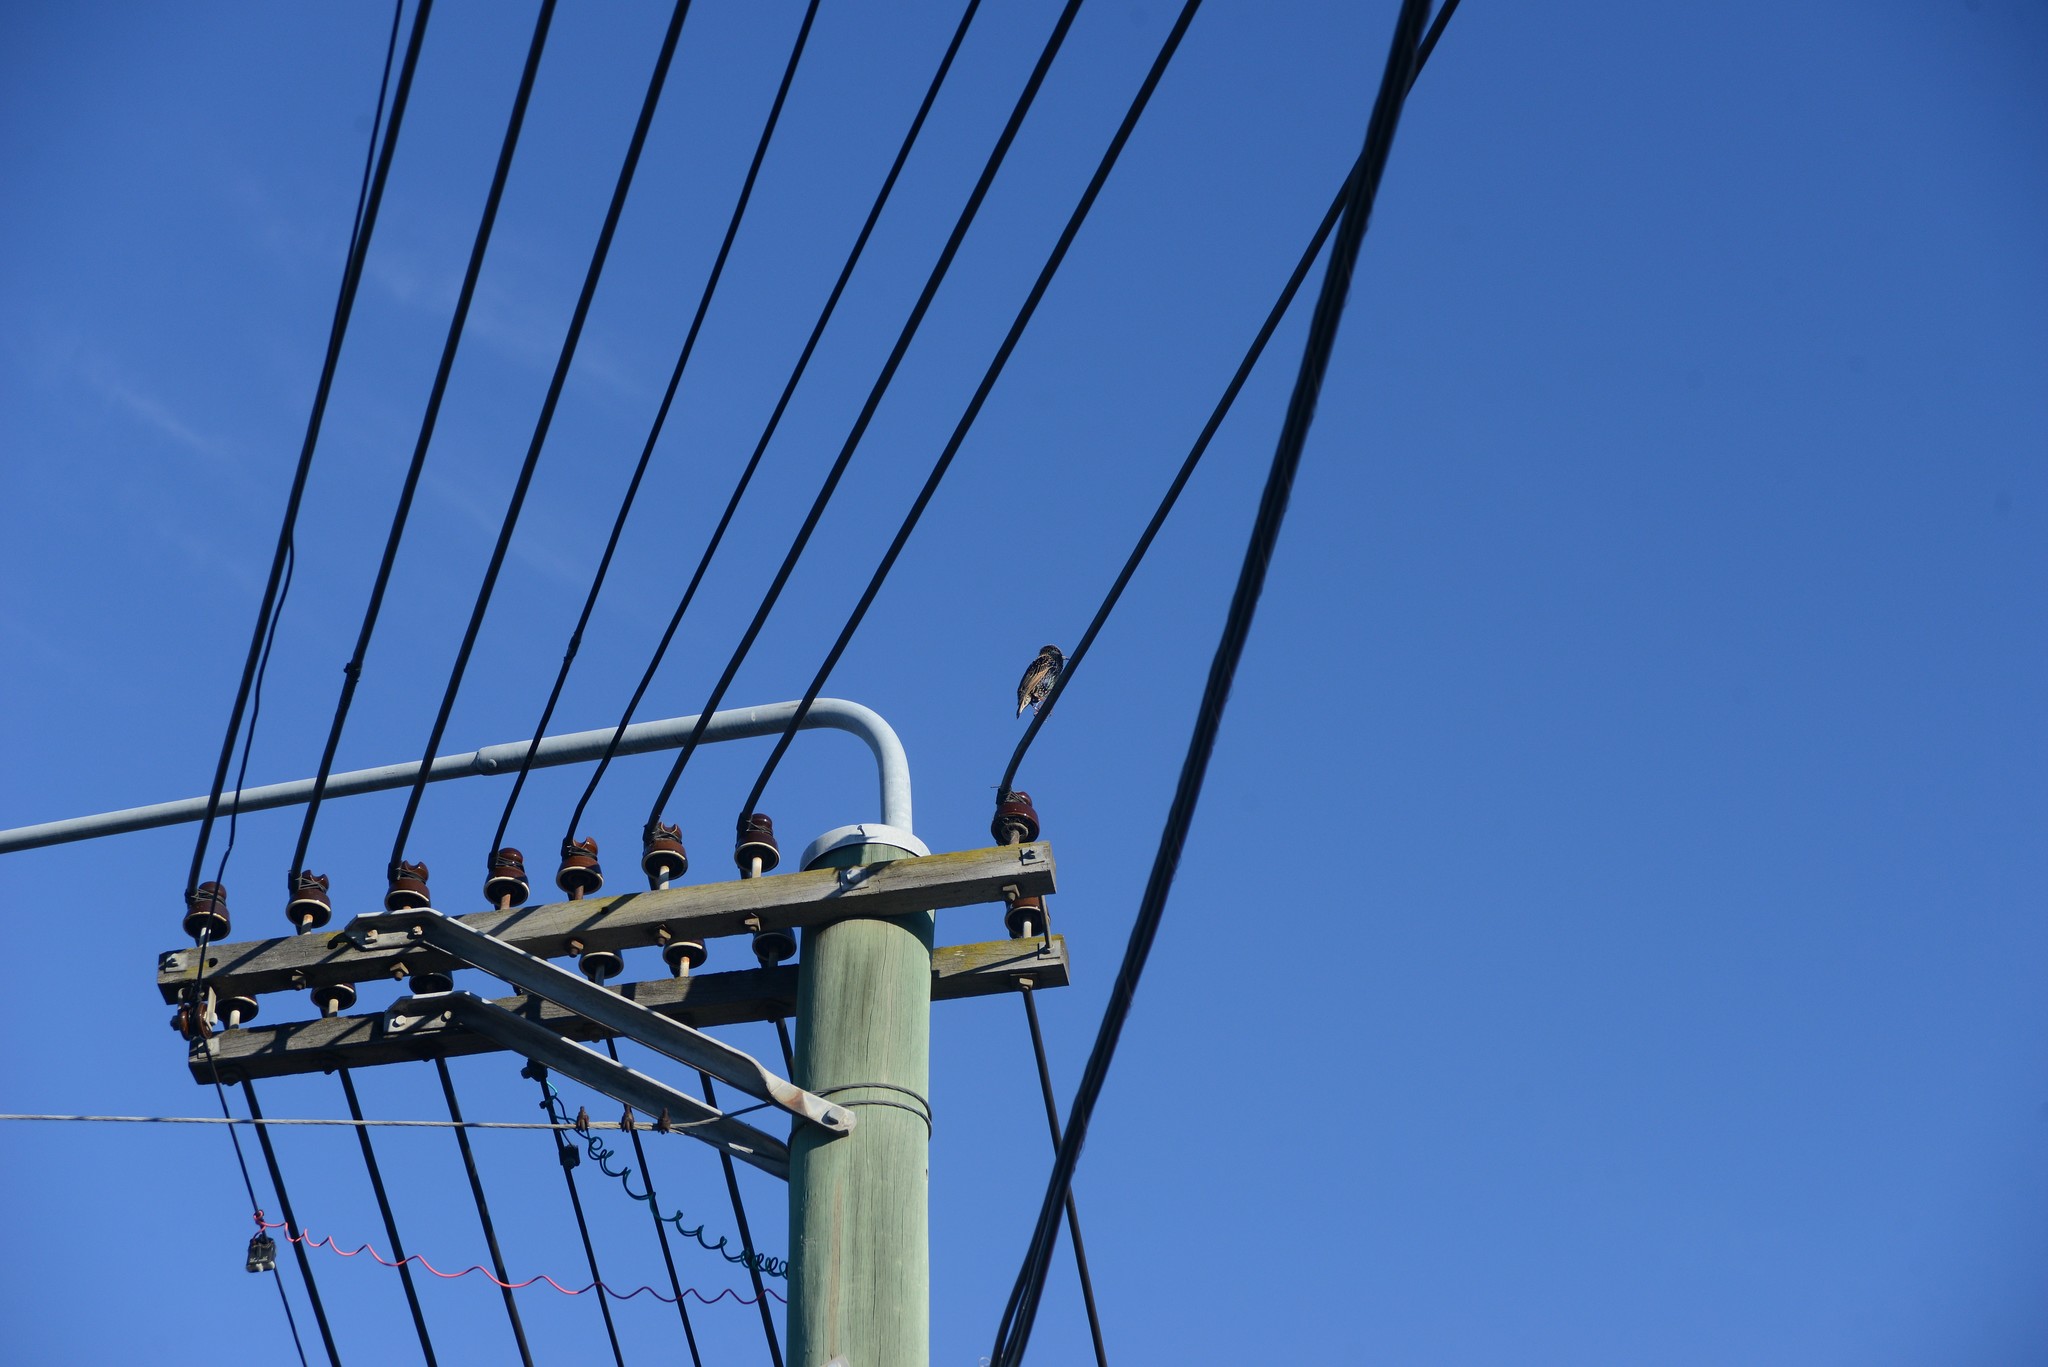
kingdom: Animalia
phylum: Chordata
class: Aves
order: Passeriformes
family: Sturnidae
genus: Sturnus
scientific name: Sturnus vulgaris
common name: Common starling
